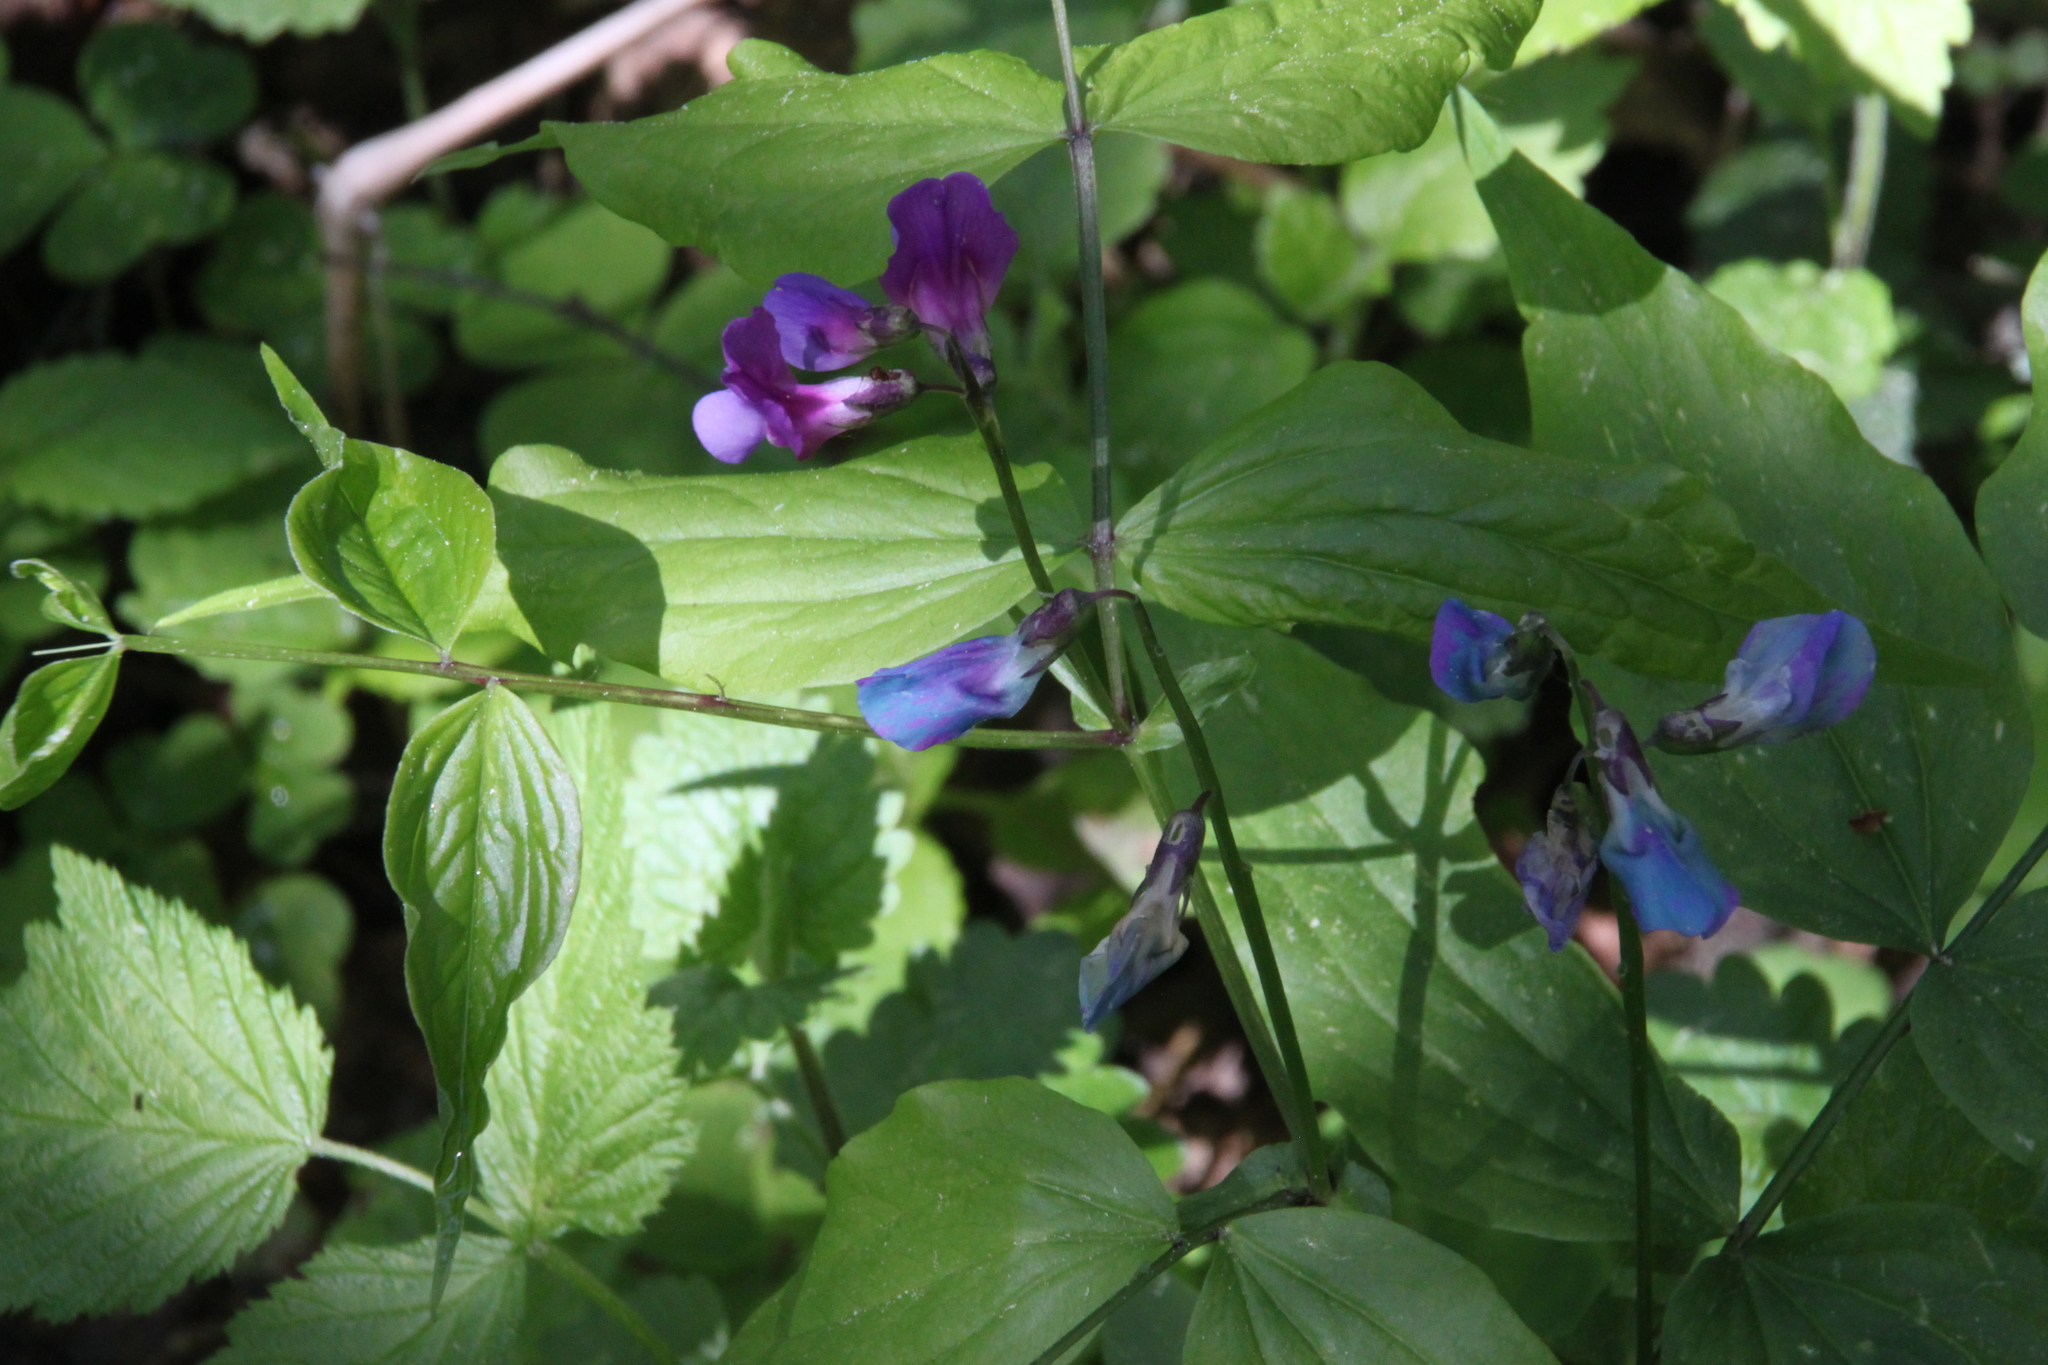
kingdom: Plantae
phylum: Tracheophyta
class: Magnoliopsida
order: Fabales
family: Fabaceae
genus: Lathyrus
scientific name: Lathyrus vernus
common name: Spring pea
